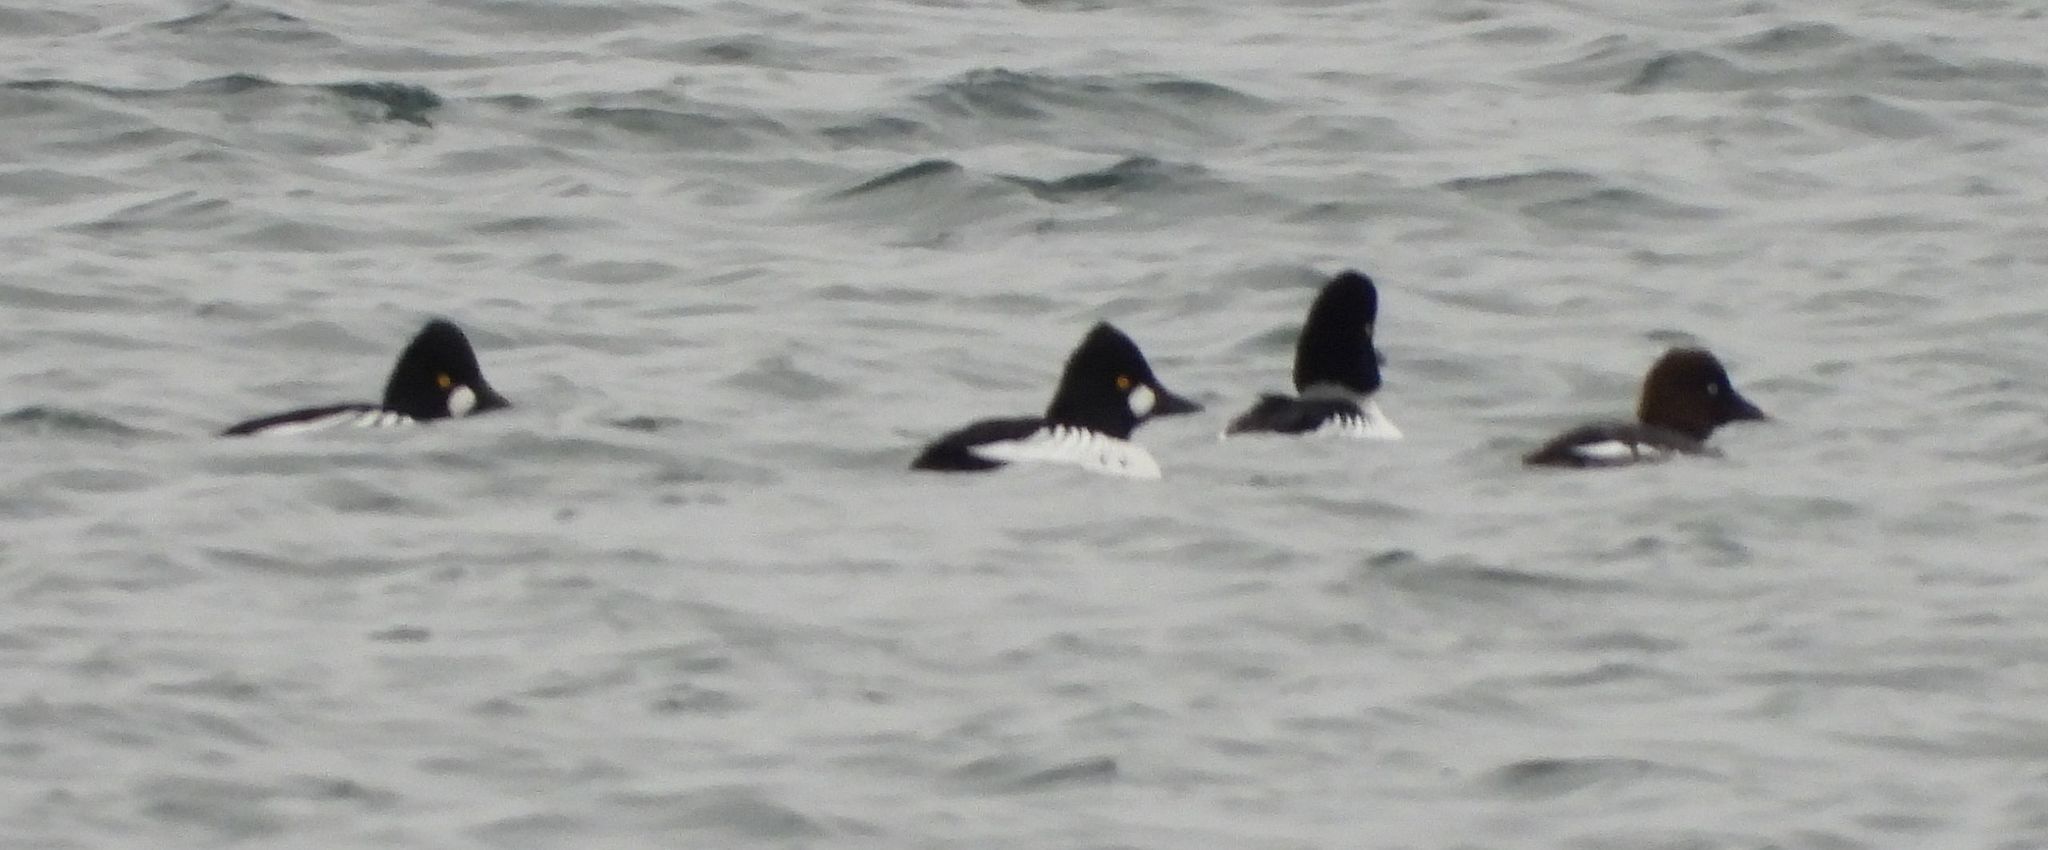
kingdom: Animalia
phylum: Chordata
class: Aves
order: Anseriformes
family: Anatidae
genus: Bucephala
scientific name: Bucephala clangula
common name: Common goldeneye
